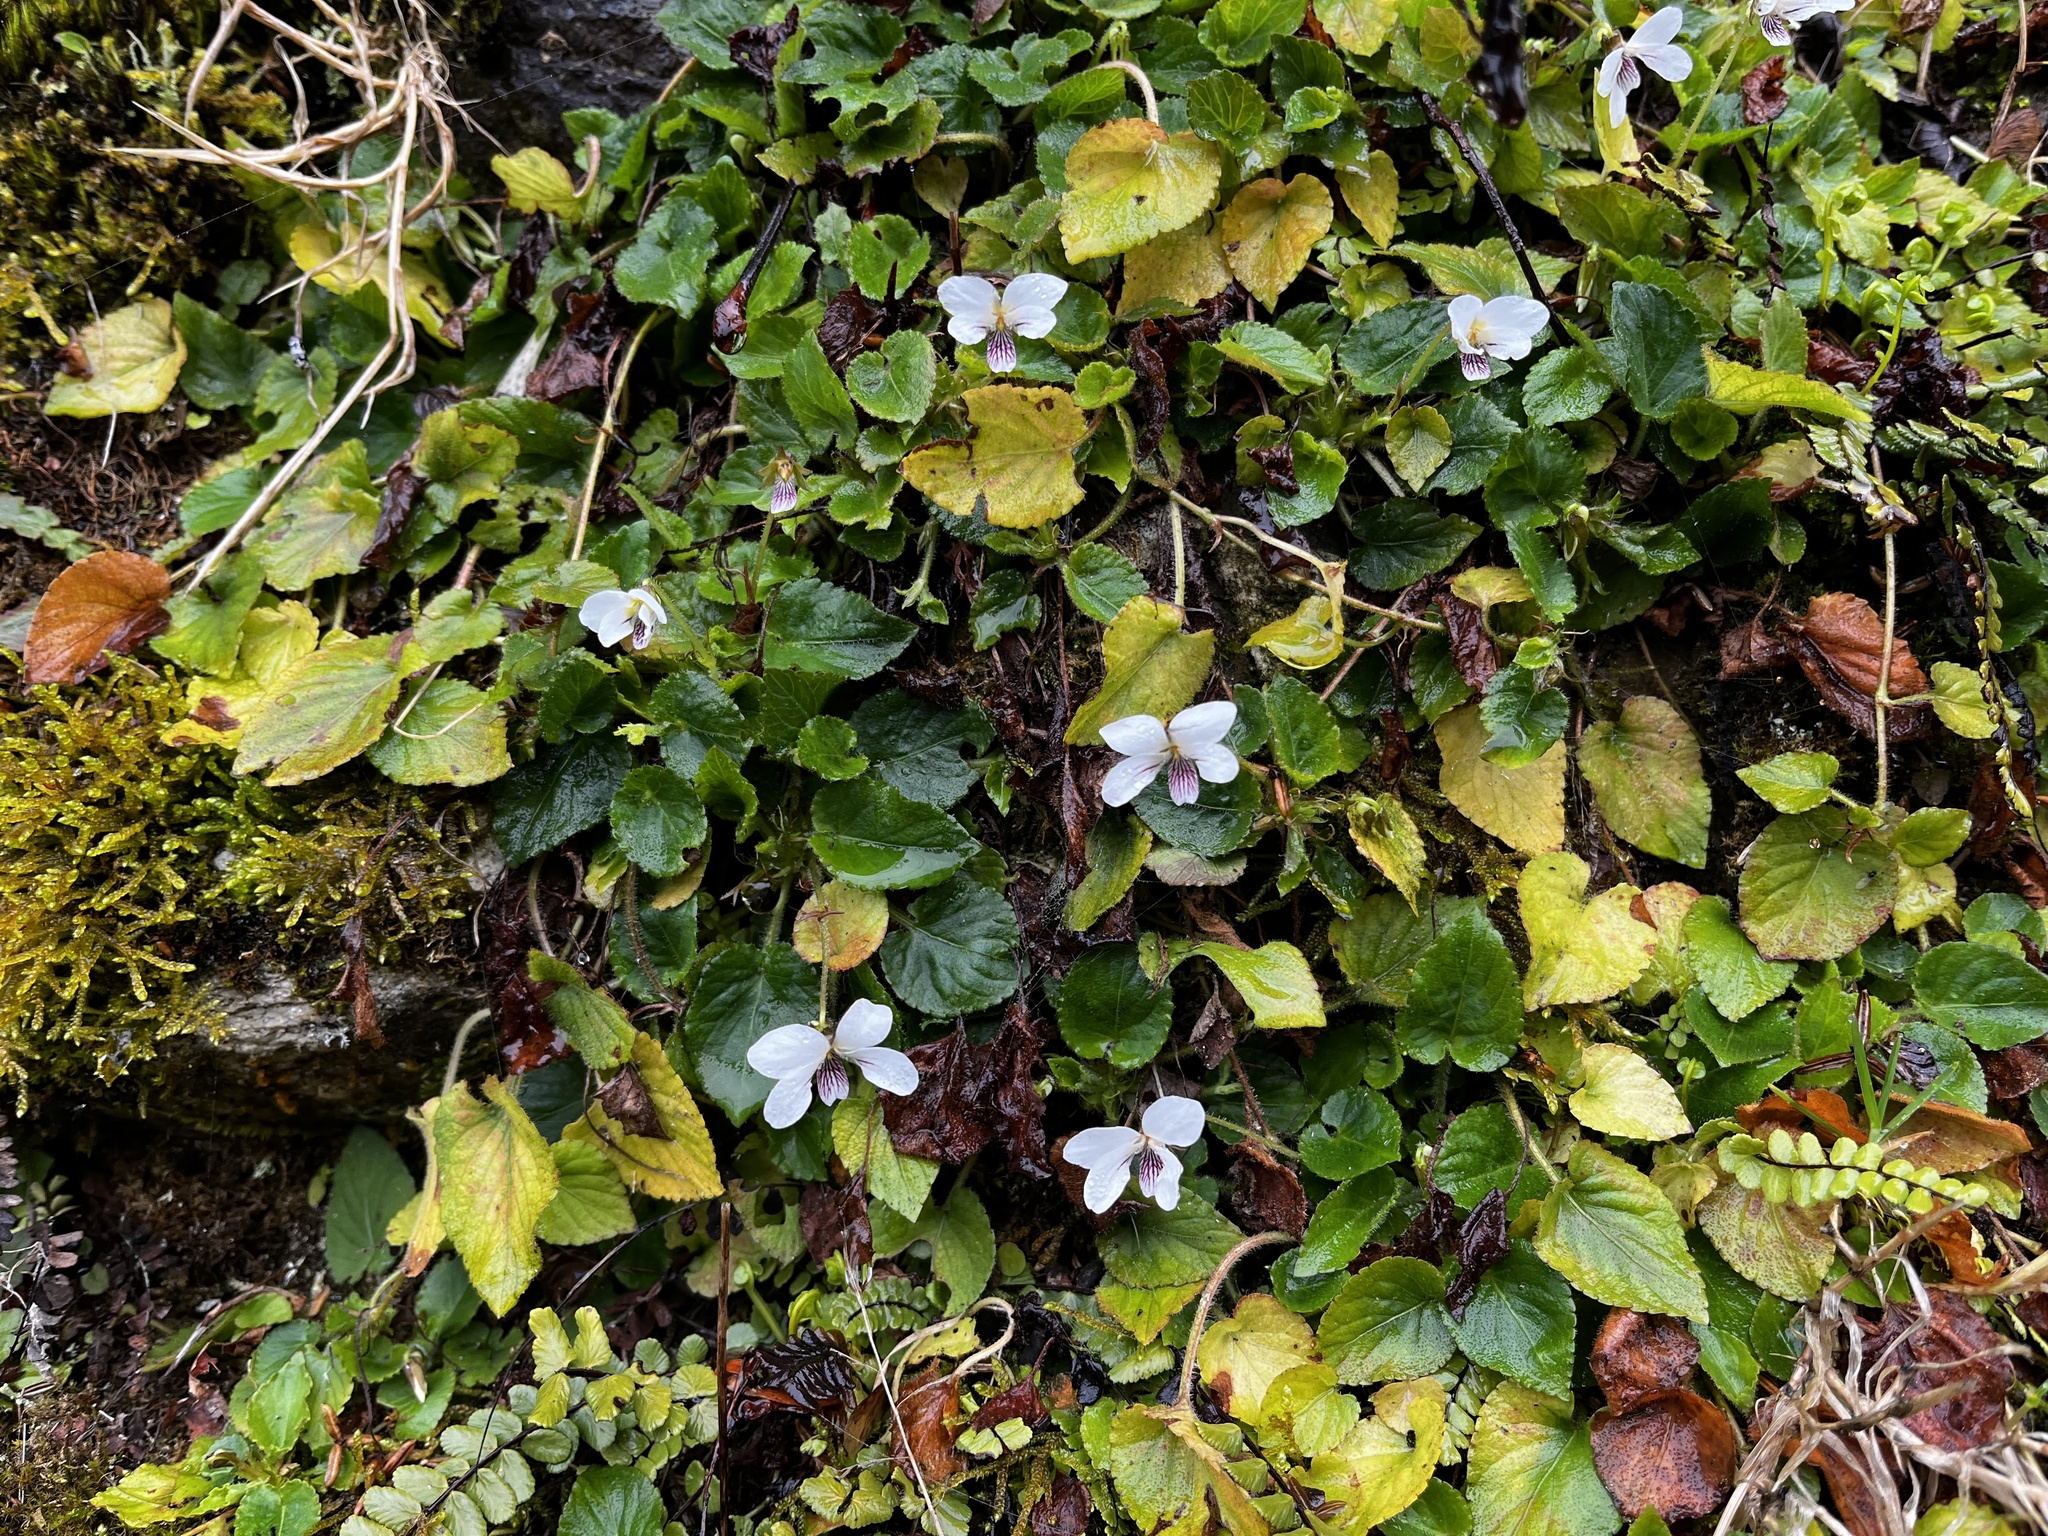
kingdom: Plantae
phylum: Tracheophyta
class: Magnoliopsida
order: Malpighiales
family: Violaceae
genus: Viola
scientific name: Viola adenothrix
